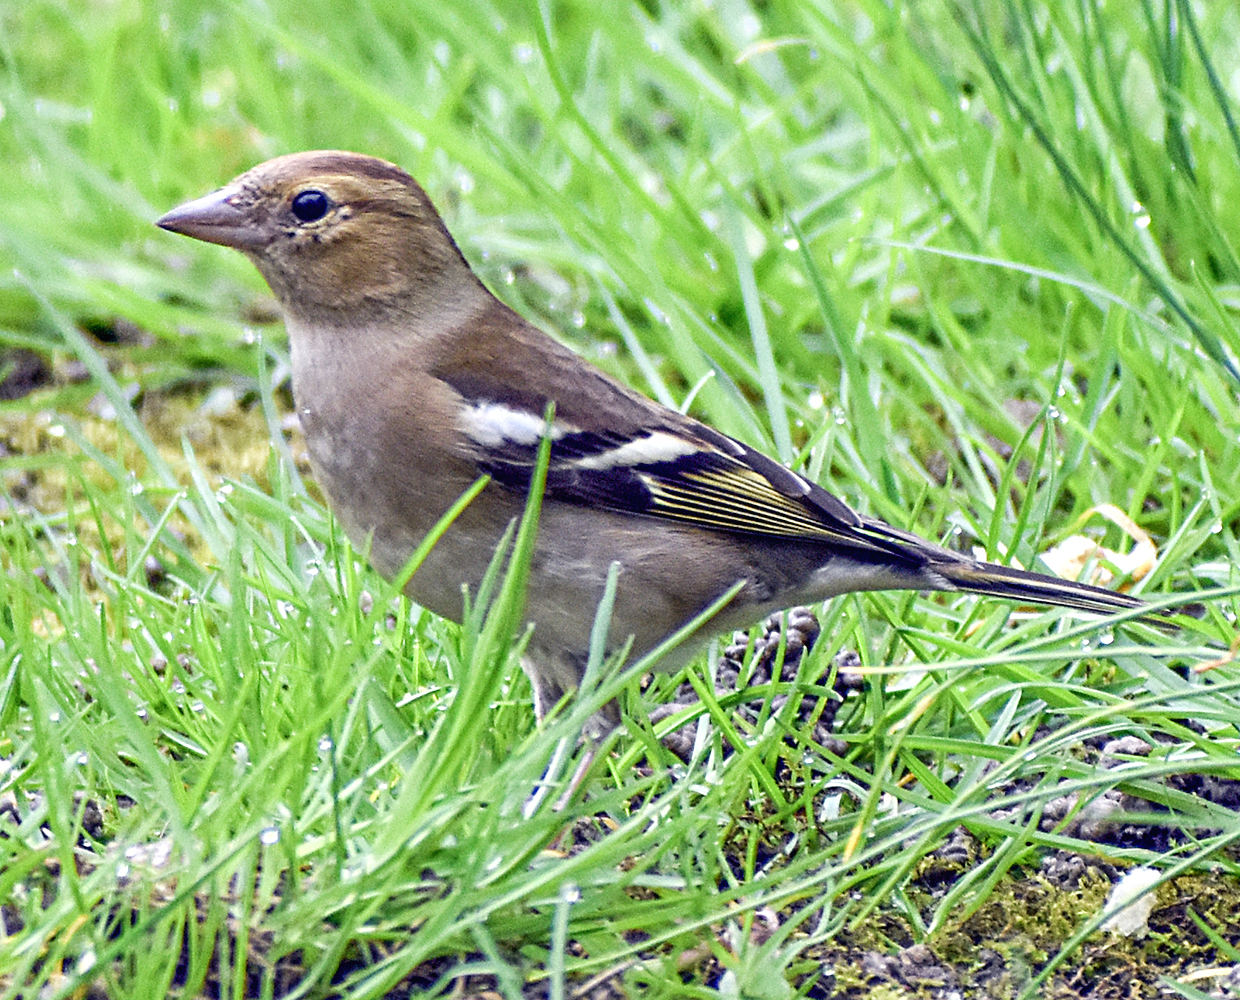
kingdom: Animalia
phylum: Chordata
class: Aves
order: Passeriformes
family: Fringillidae
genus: Fringilla
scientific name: Fringilla coelebs
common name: Common chaffinch
